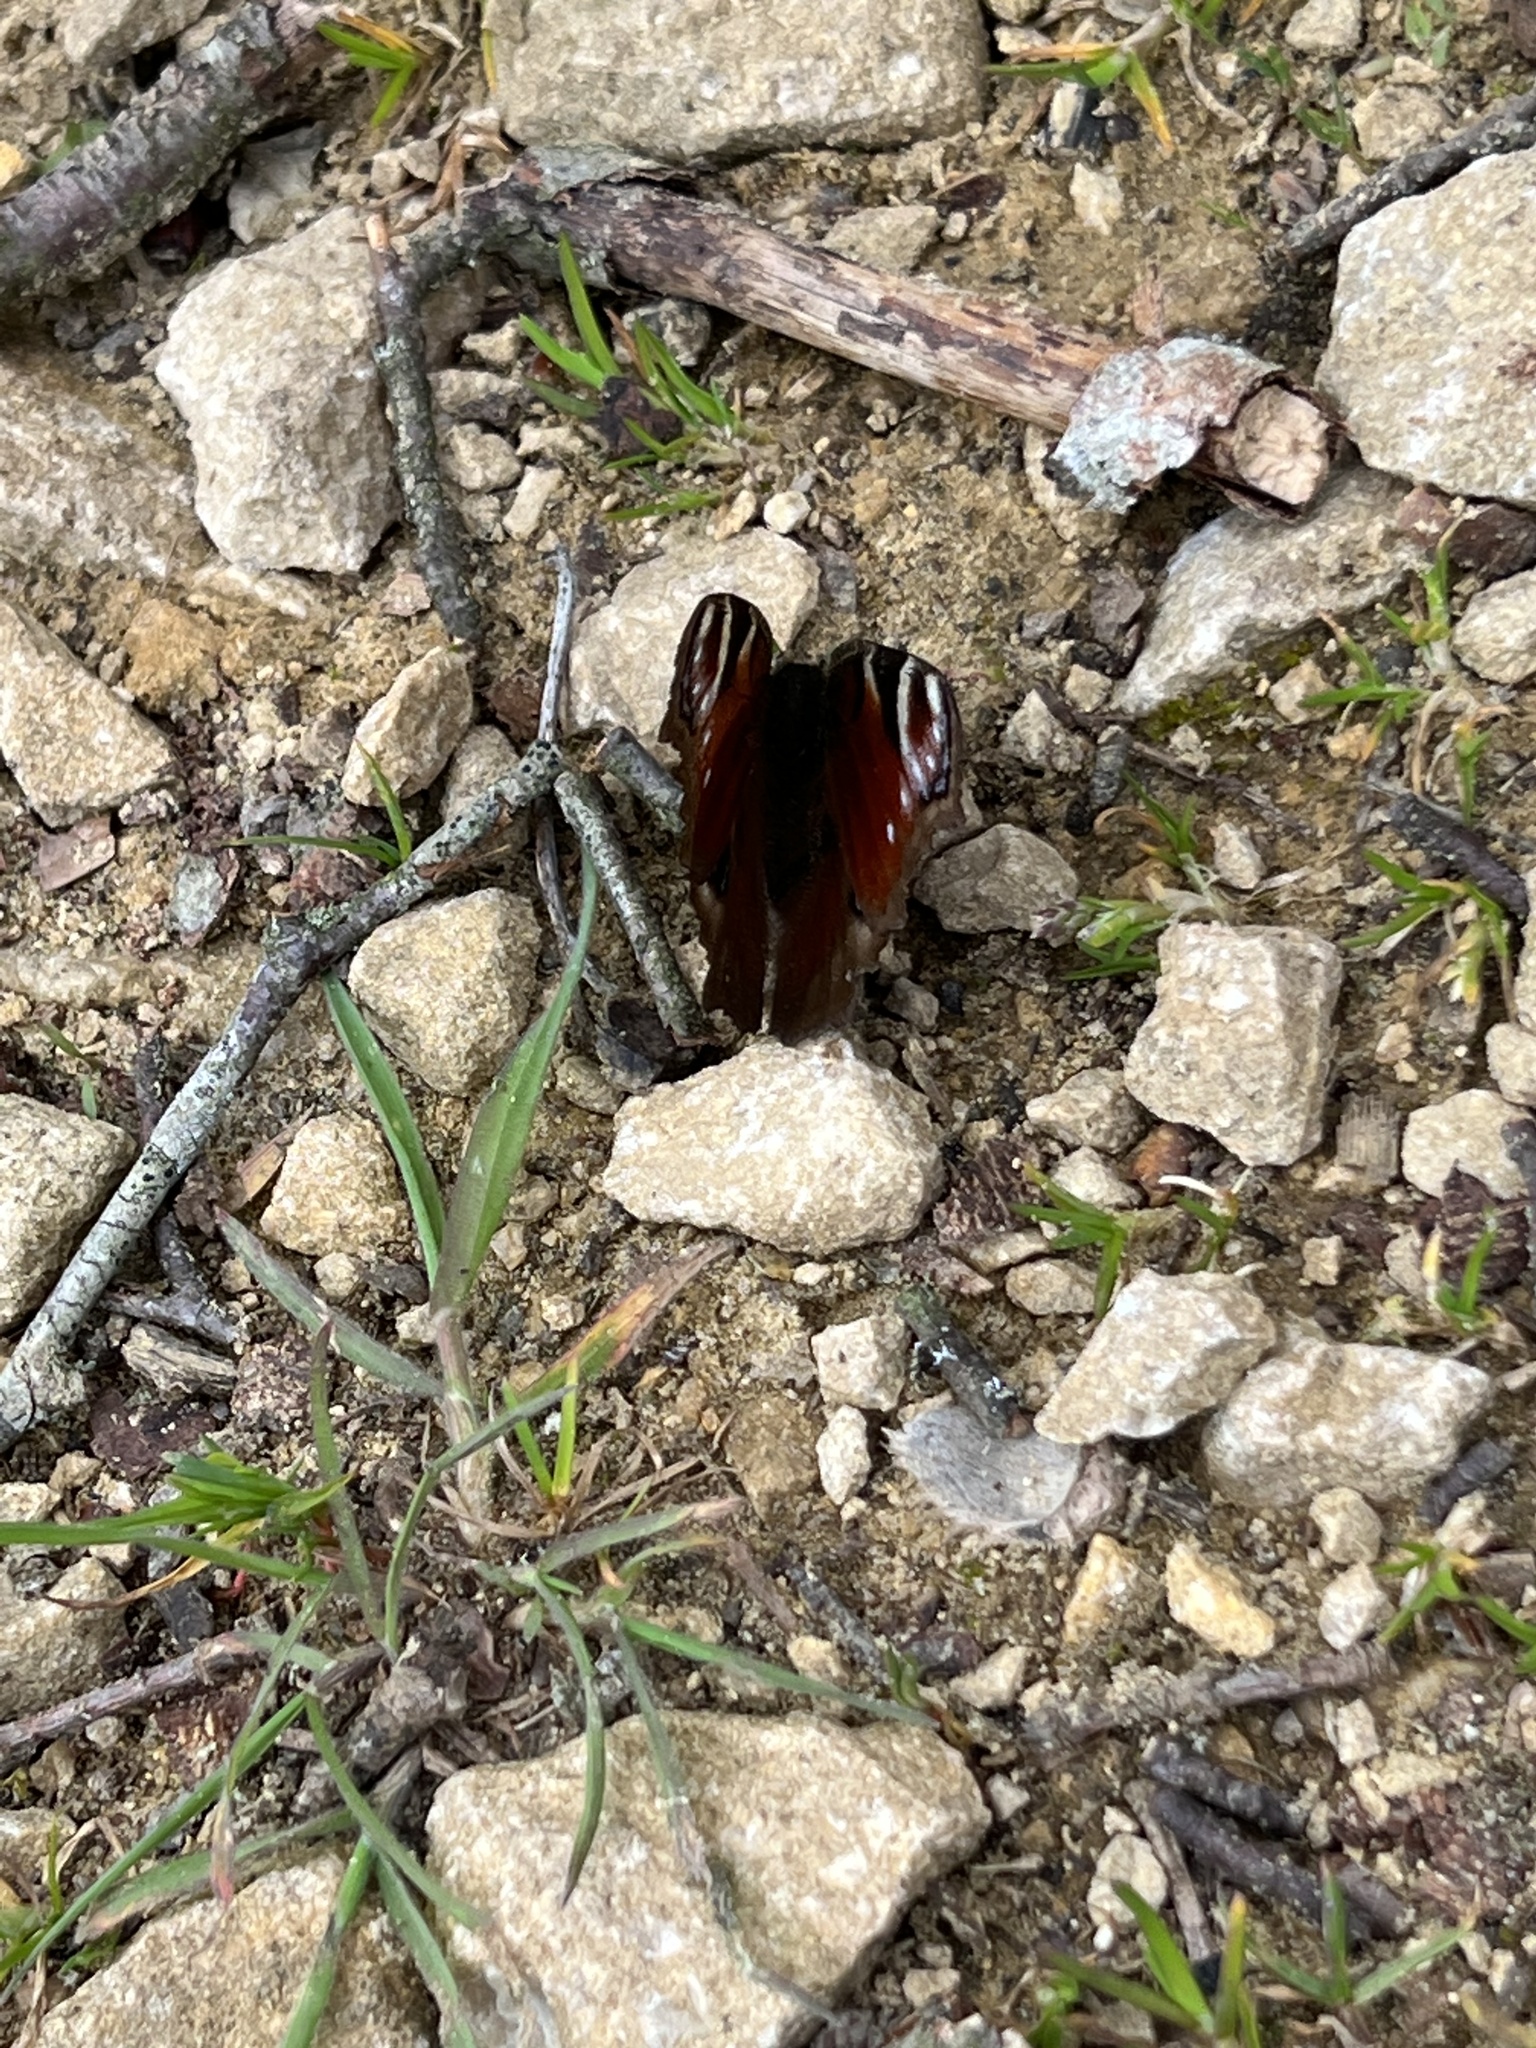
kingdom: Animalia
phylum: Arthropoda
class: Insecta
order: Lepidoptera
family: Nymphalidae
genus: Aglais
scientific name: Aglais io
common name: Peacock
